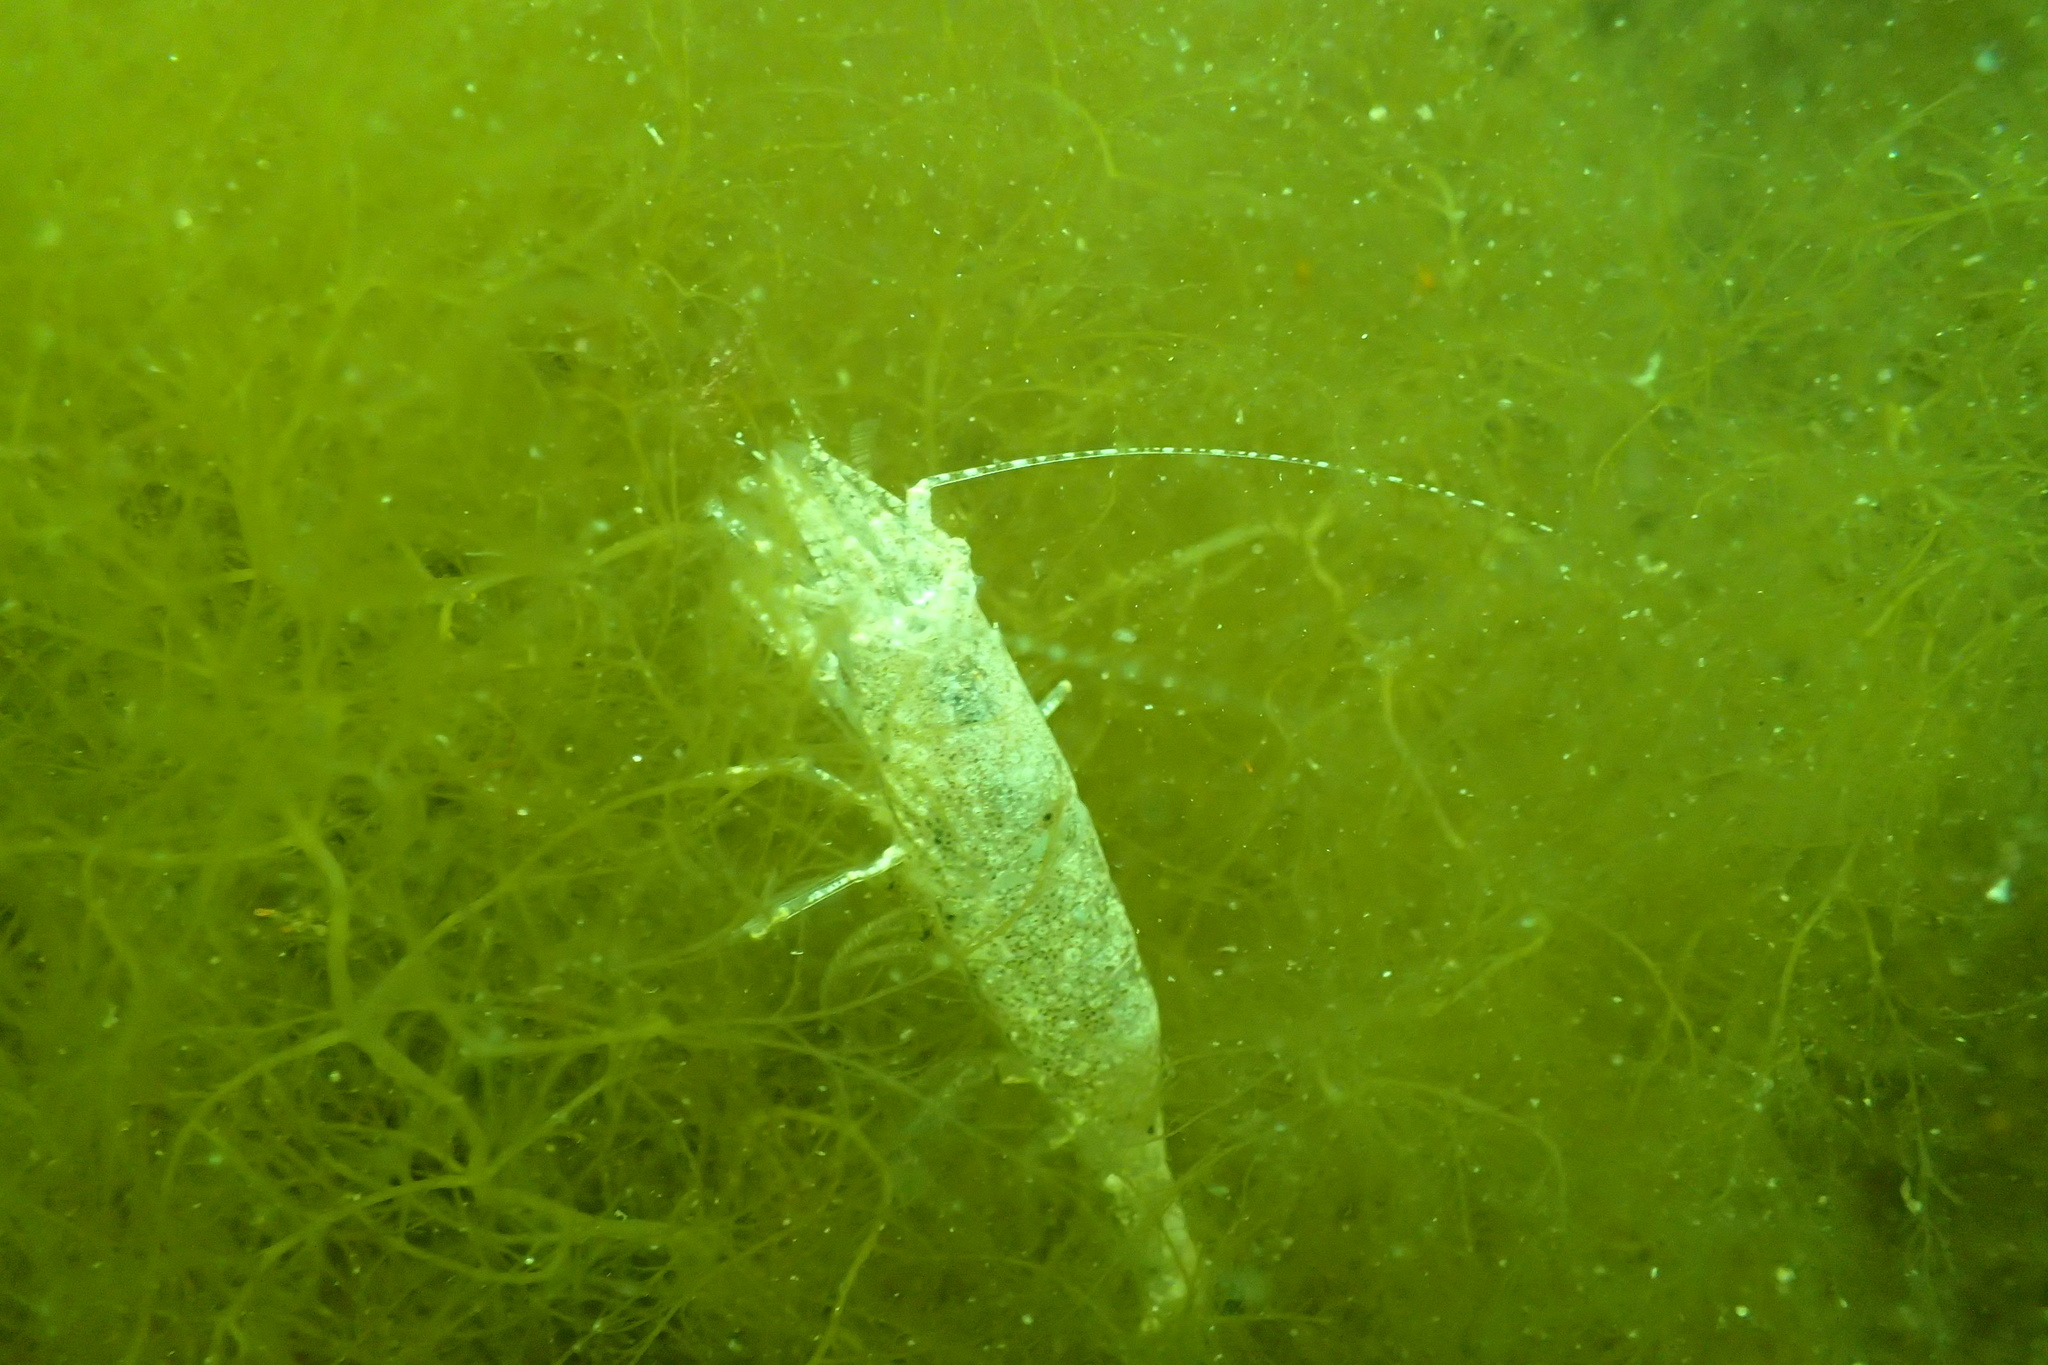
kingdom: Animalia
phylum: Arthropoda
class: Malacostraca
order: Decapoda
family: Crangonidae
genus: Crangon
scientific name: Crangon septemspinosa
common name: Bail shrimp
